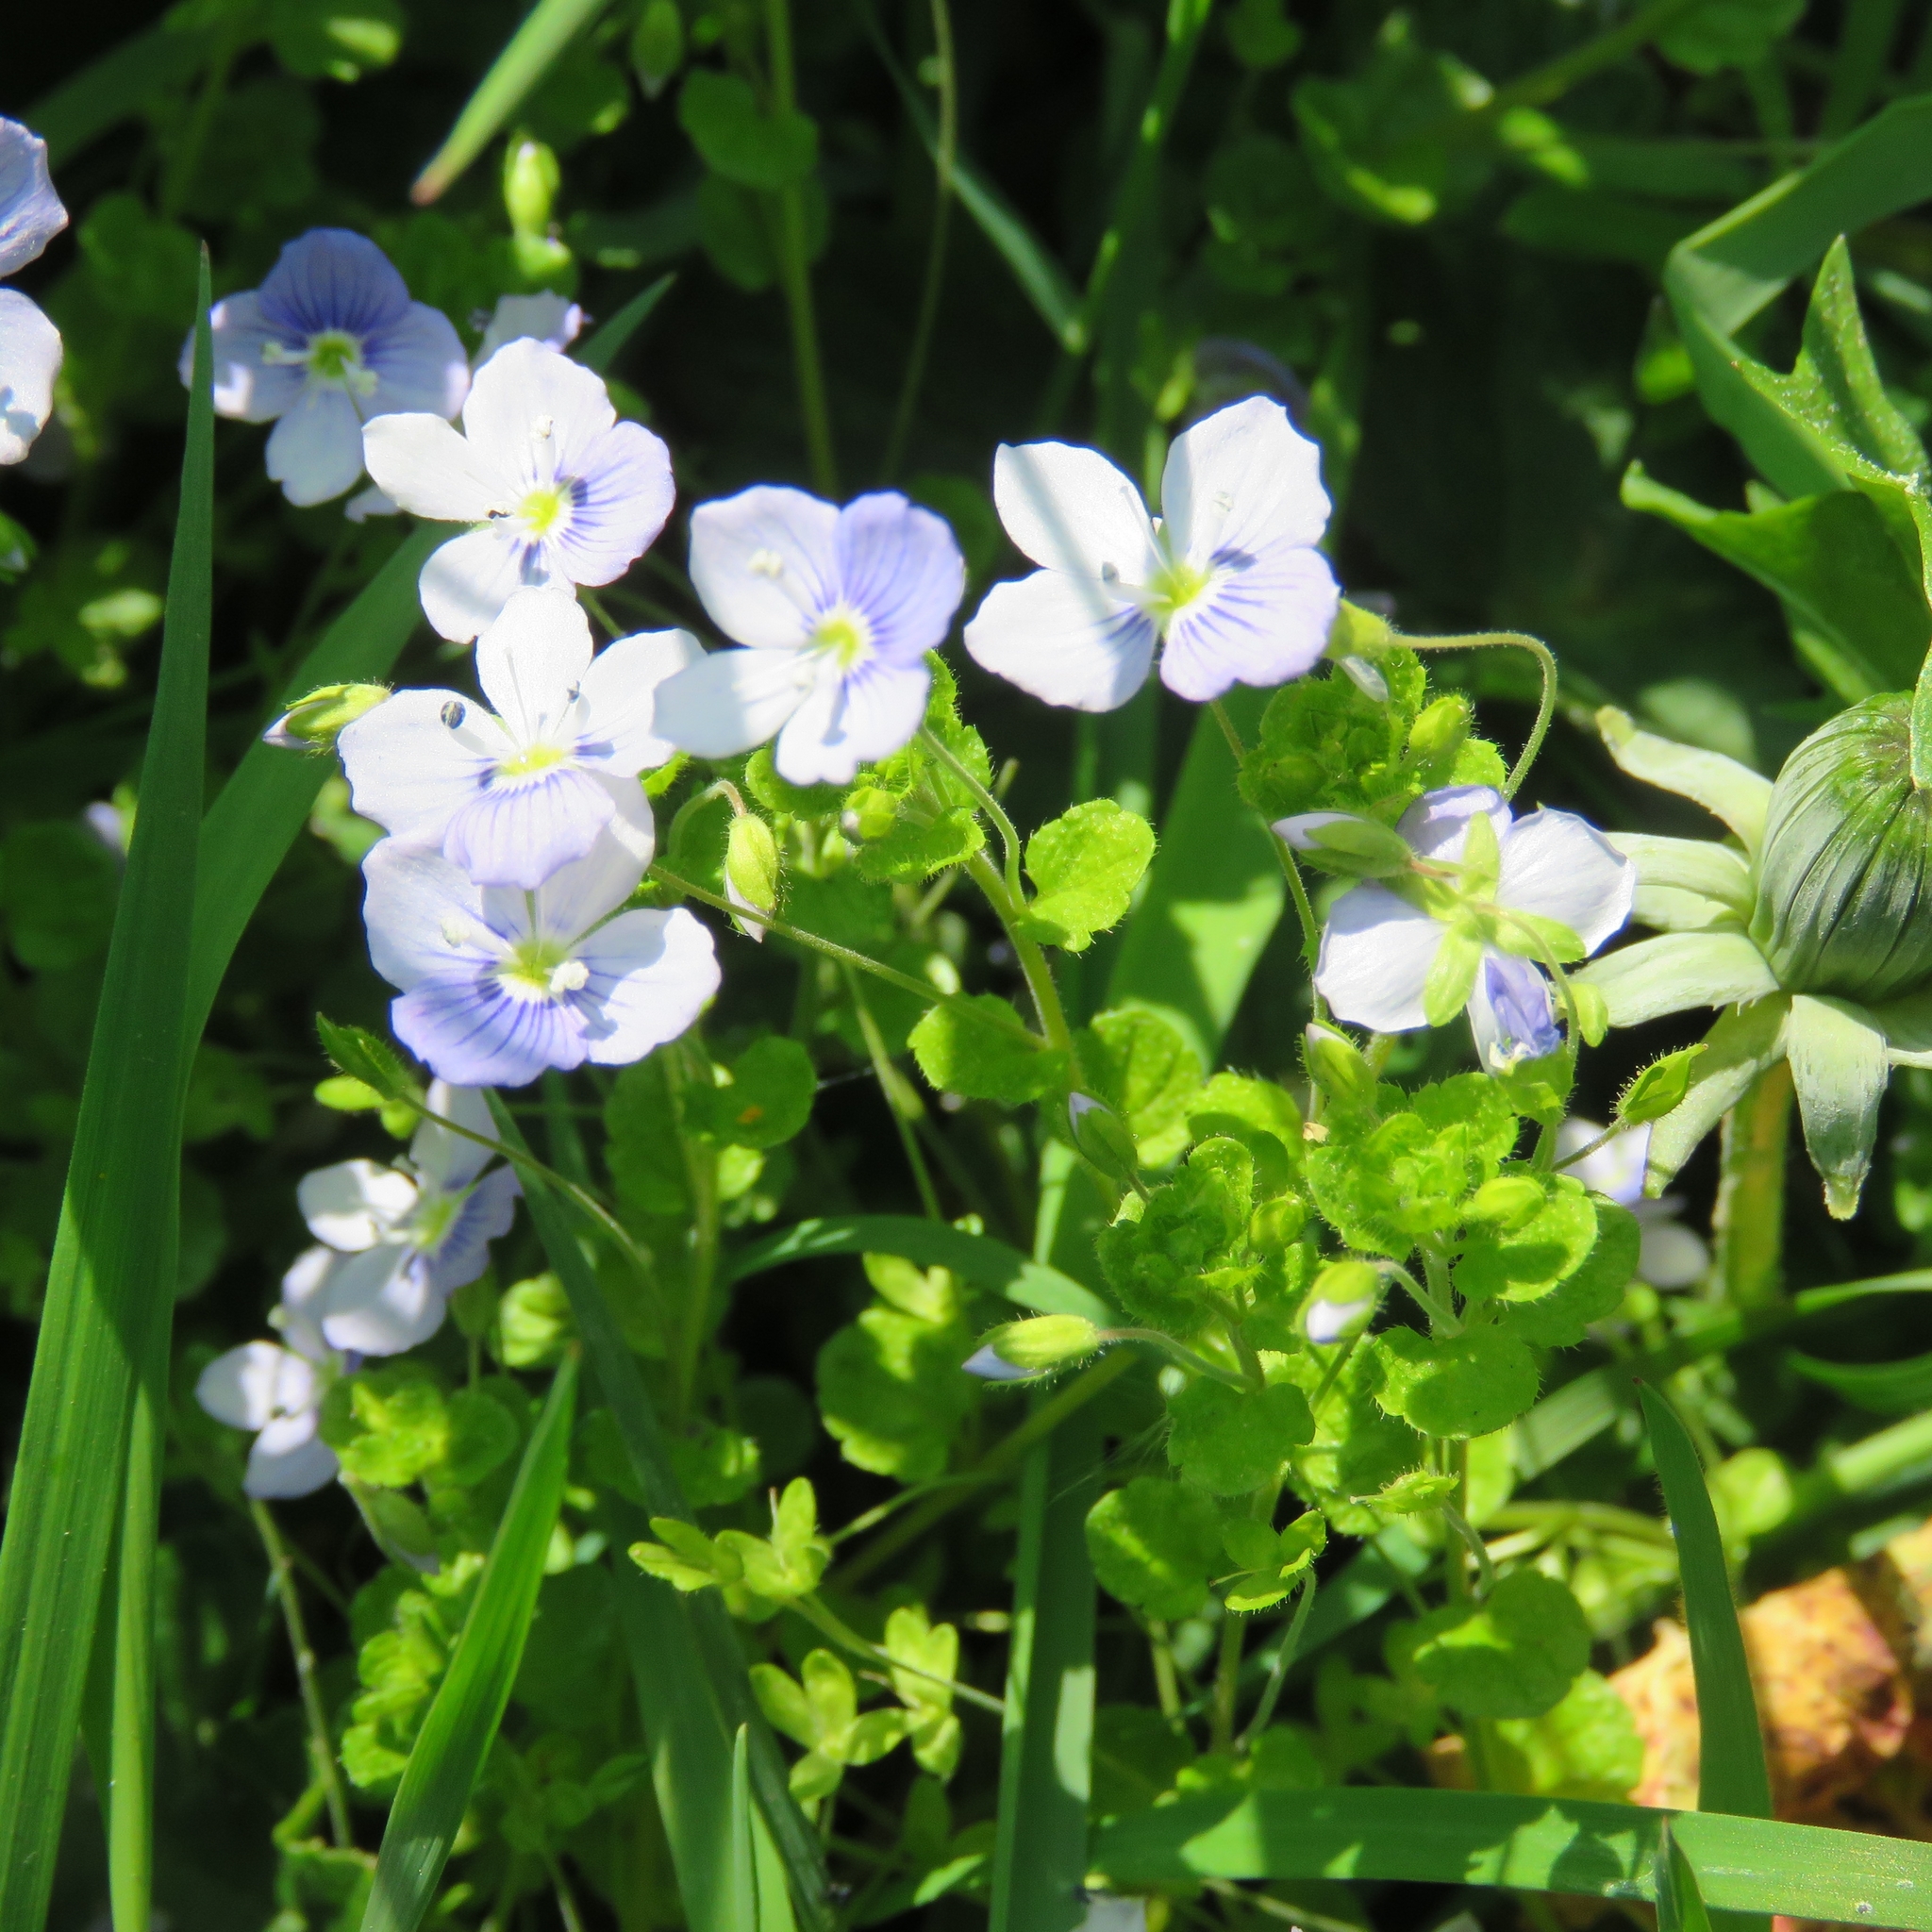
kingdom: Plantae
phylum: Tracheophyta
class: Magnoliopsida
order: Lamiales
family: Plantaginaceae
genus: Veronica
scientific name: Veronica filiformis
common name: Slender speedwell
